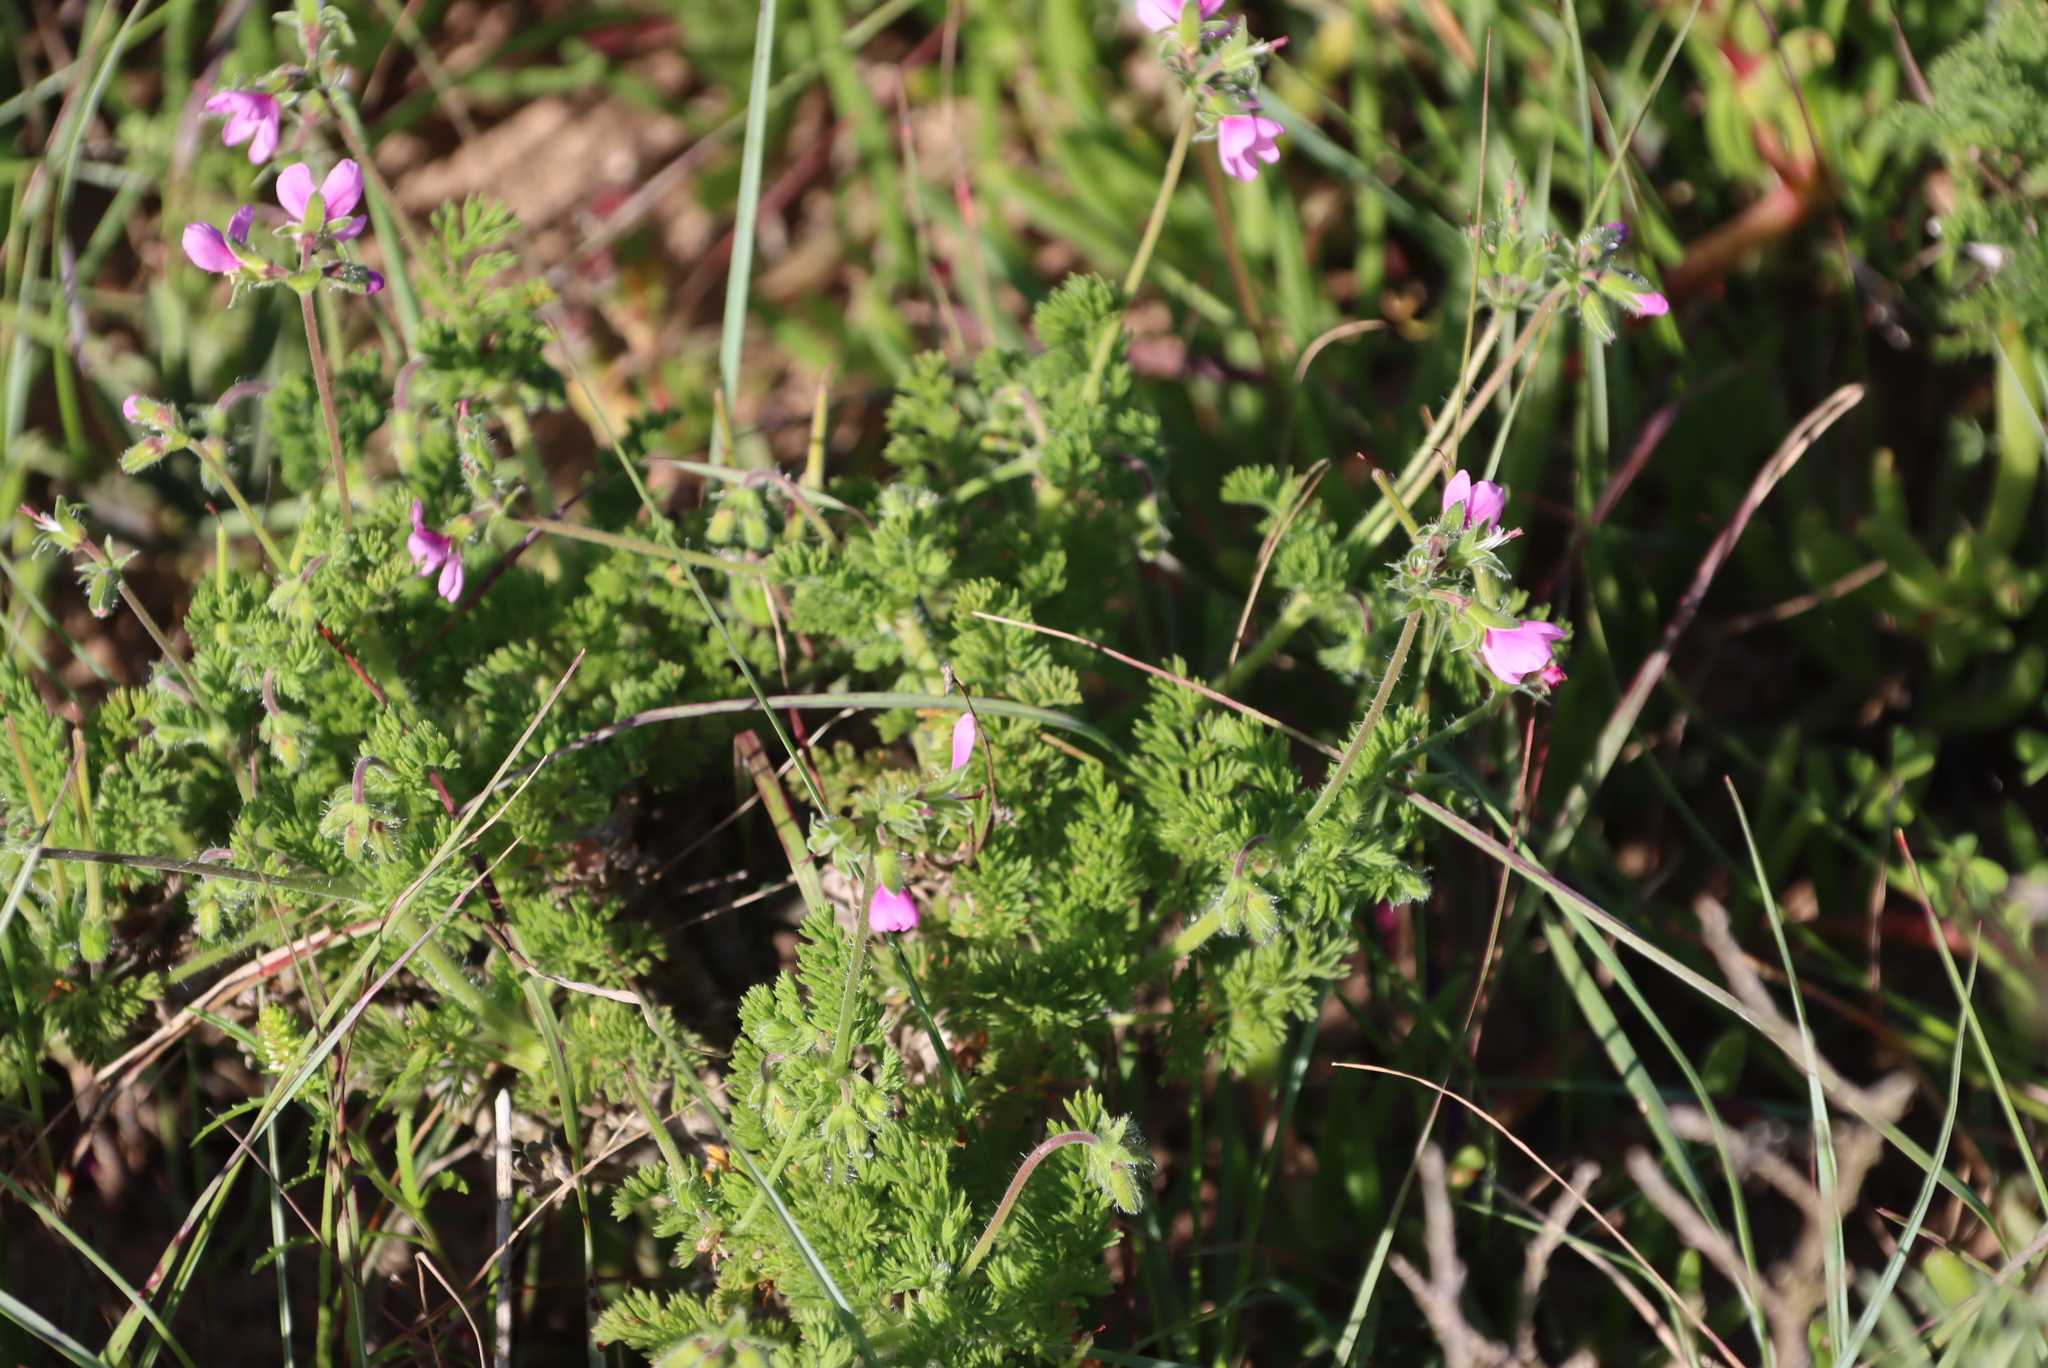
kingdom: Plantae
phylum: Tracheophyta
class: Magnoliopsida
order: Geraniales
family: Geraniaceae
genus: Pelargonium
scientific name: Pelargonium hirtum
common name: Fine-leaf pelargonium
